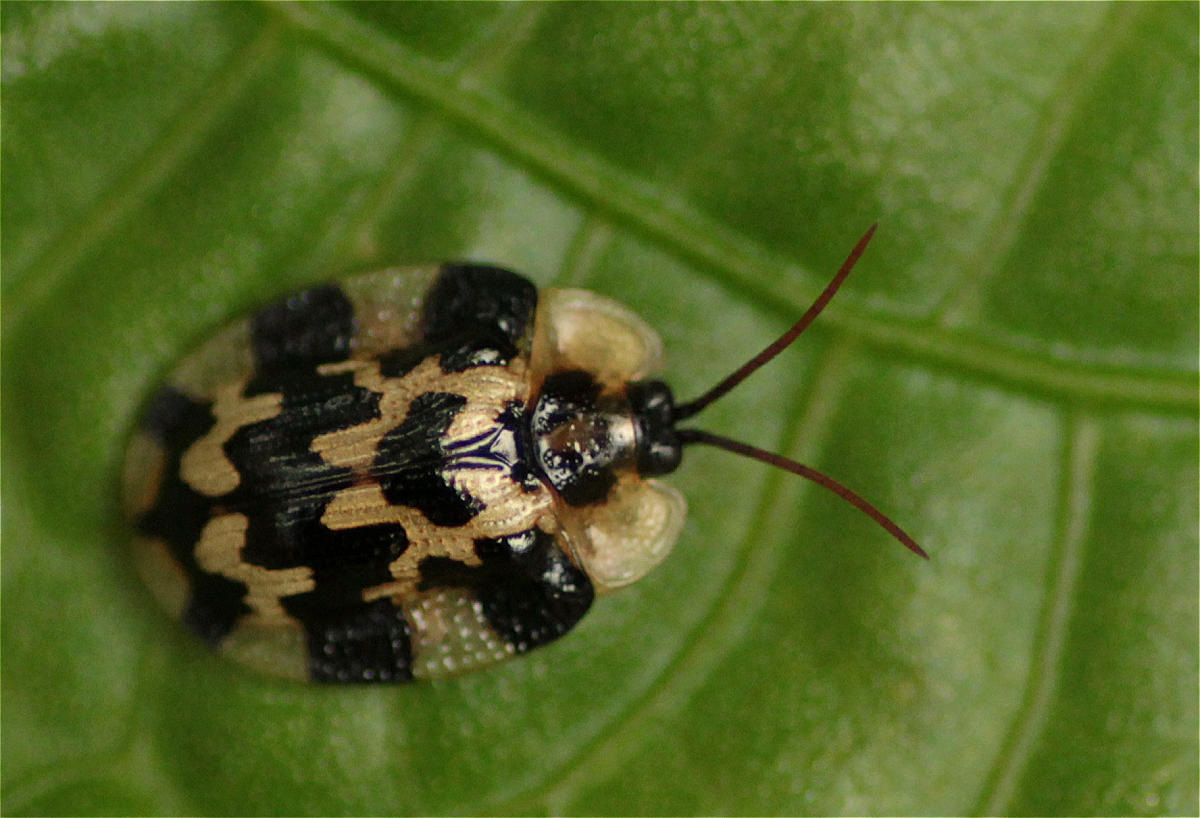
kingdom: Animalia
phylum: Arthropoda
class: Insecta
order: Coleoptera
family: Chrysomelidae
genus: Aslamidium
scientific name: Aslamidium capense
